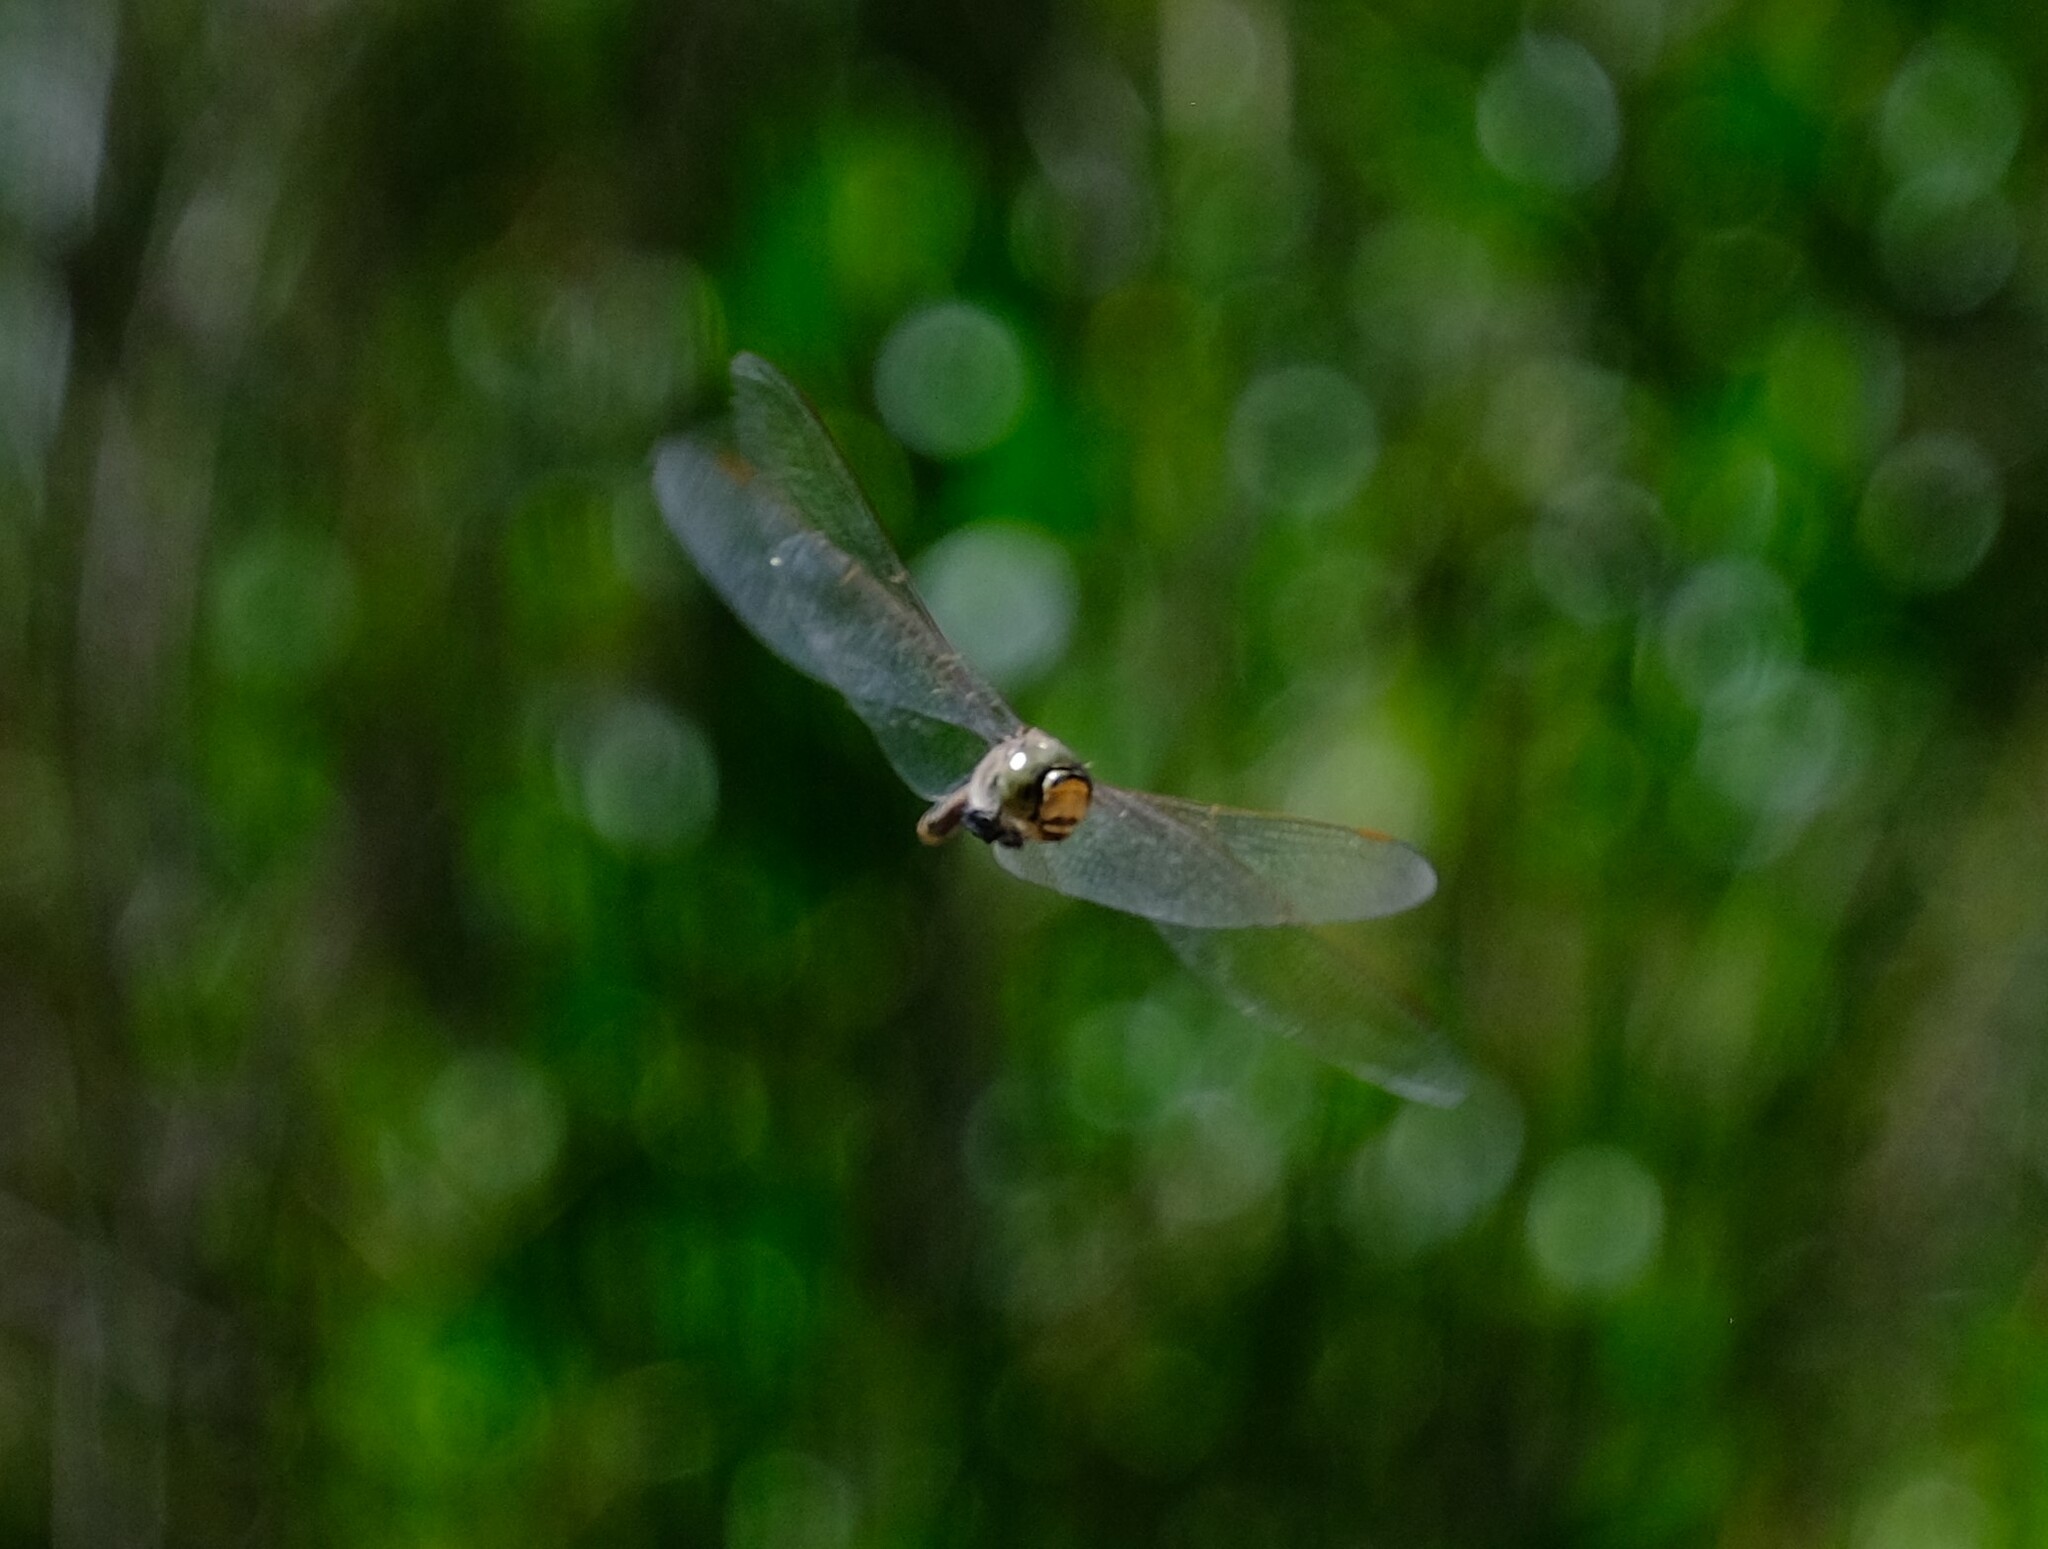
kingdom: Animalia
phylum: Arthropoda
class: Insecta
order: Odonata
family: Aeshnidae
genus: Anax
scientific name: Anax papuensis
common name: Australian emperor
